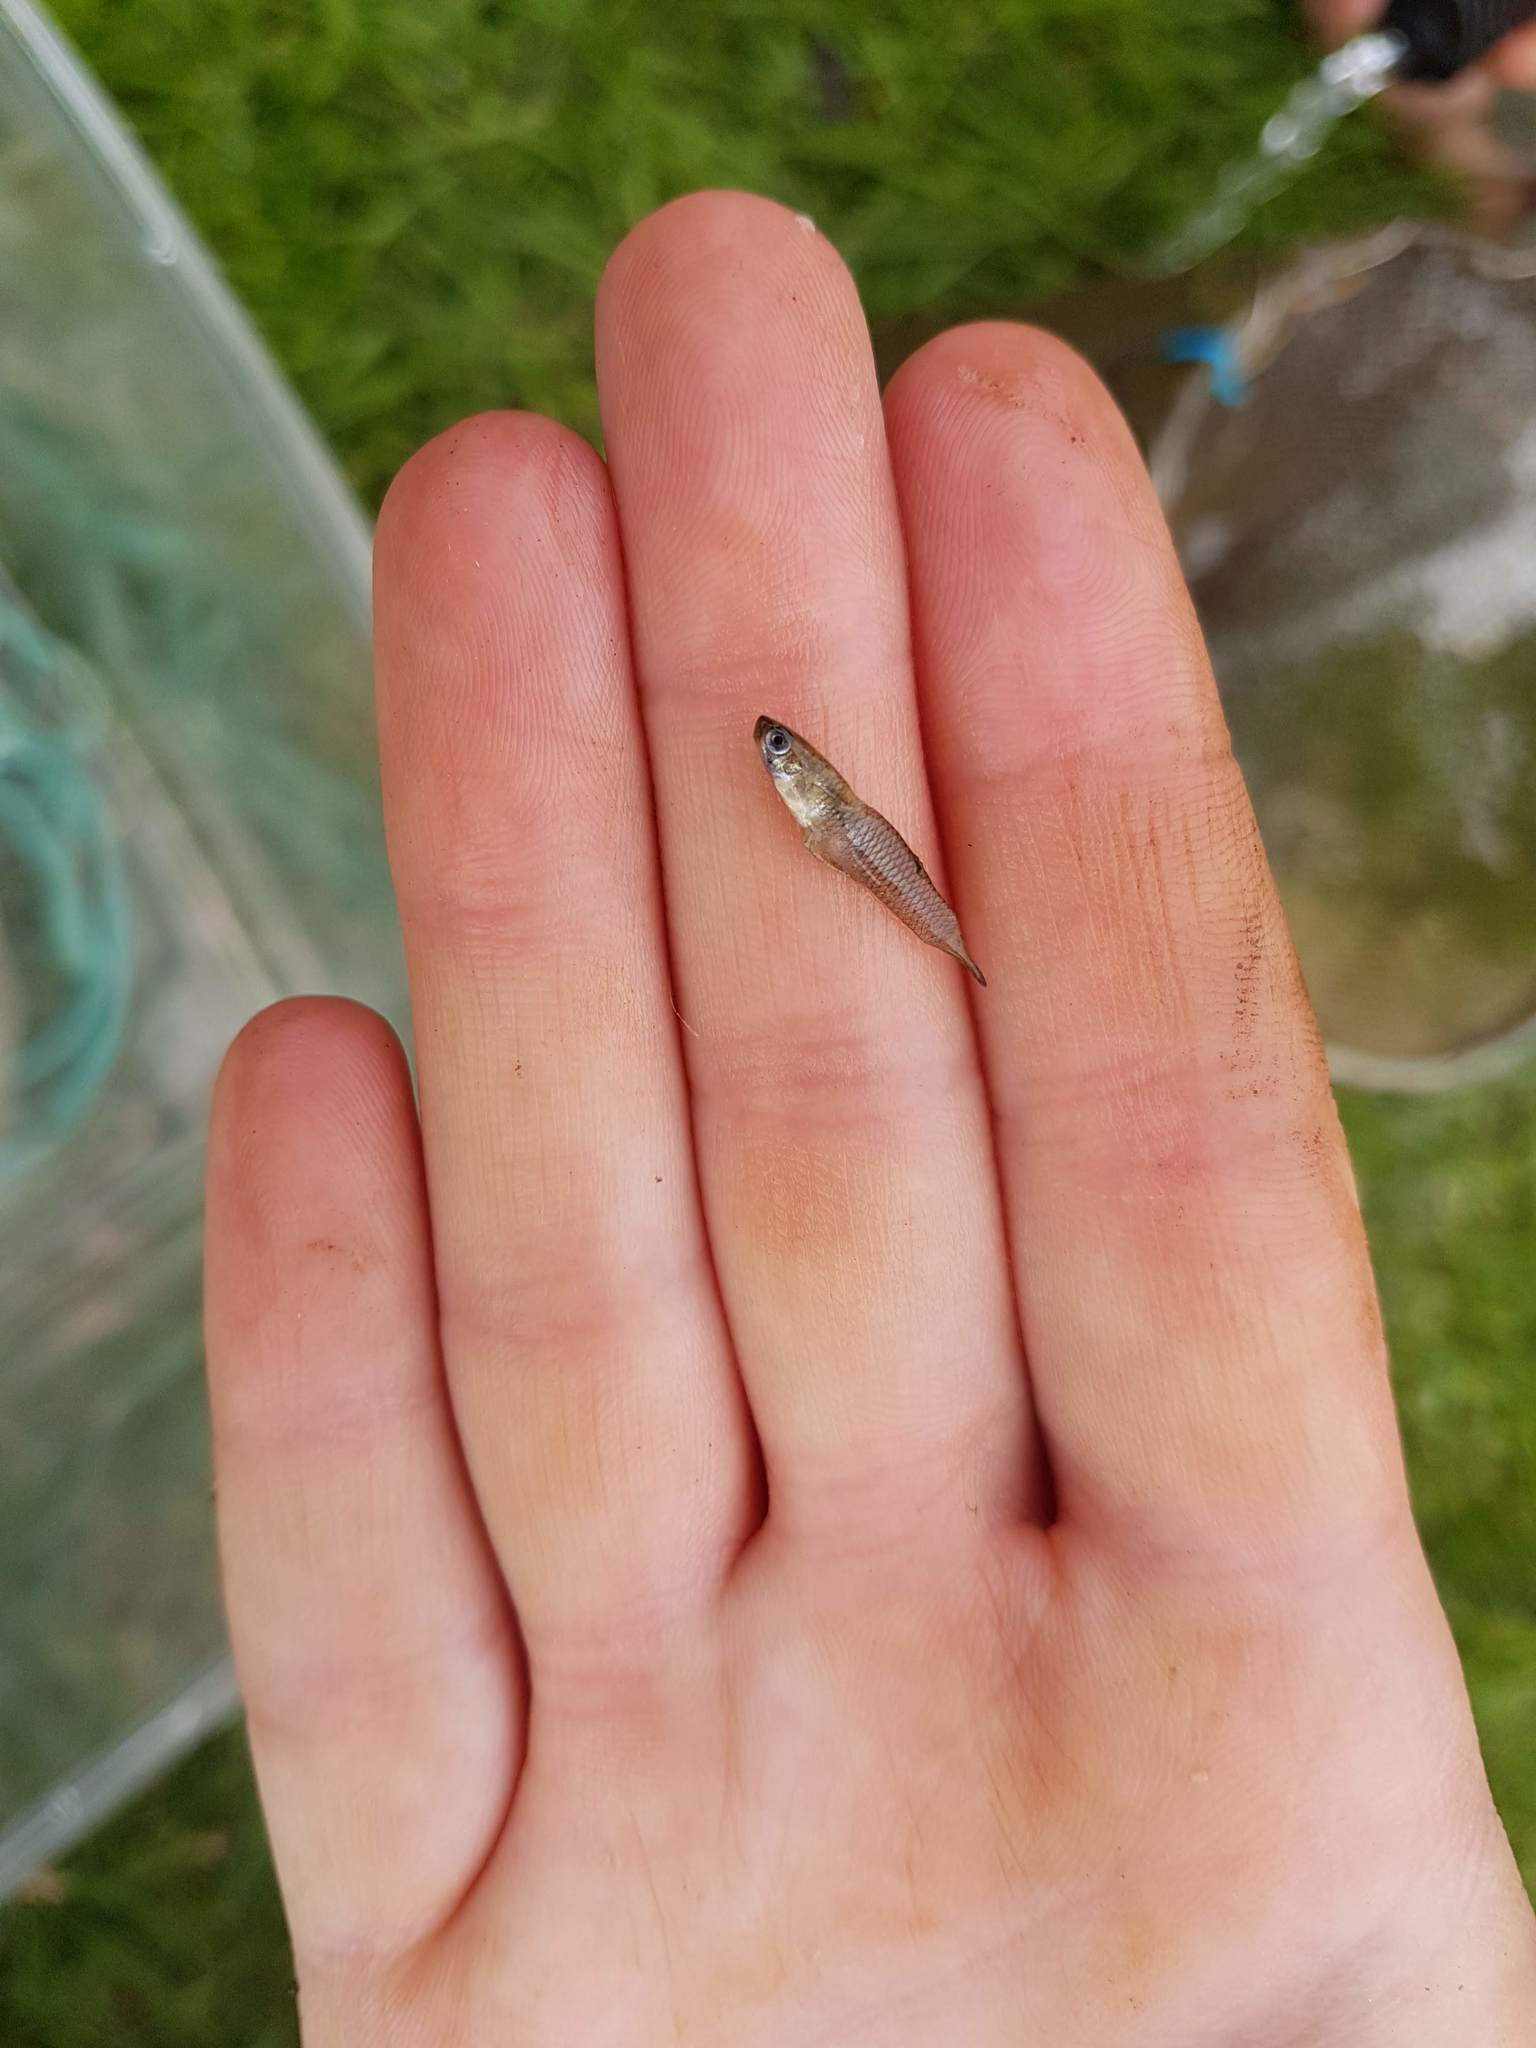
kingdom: Animalia
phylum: Chordata
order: Cyprinodontiformes
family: Poeciliidae
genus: Gambusia
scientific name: Gambusia affinis
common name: Mosquitofish
